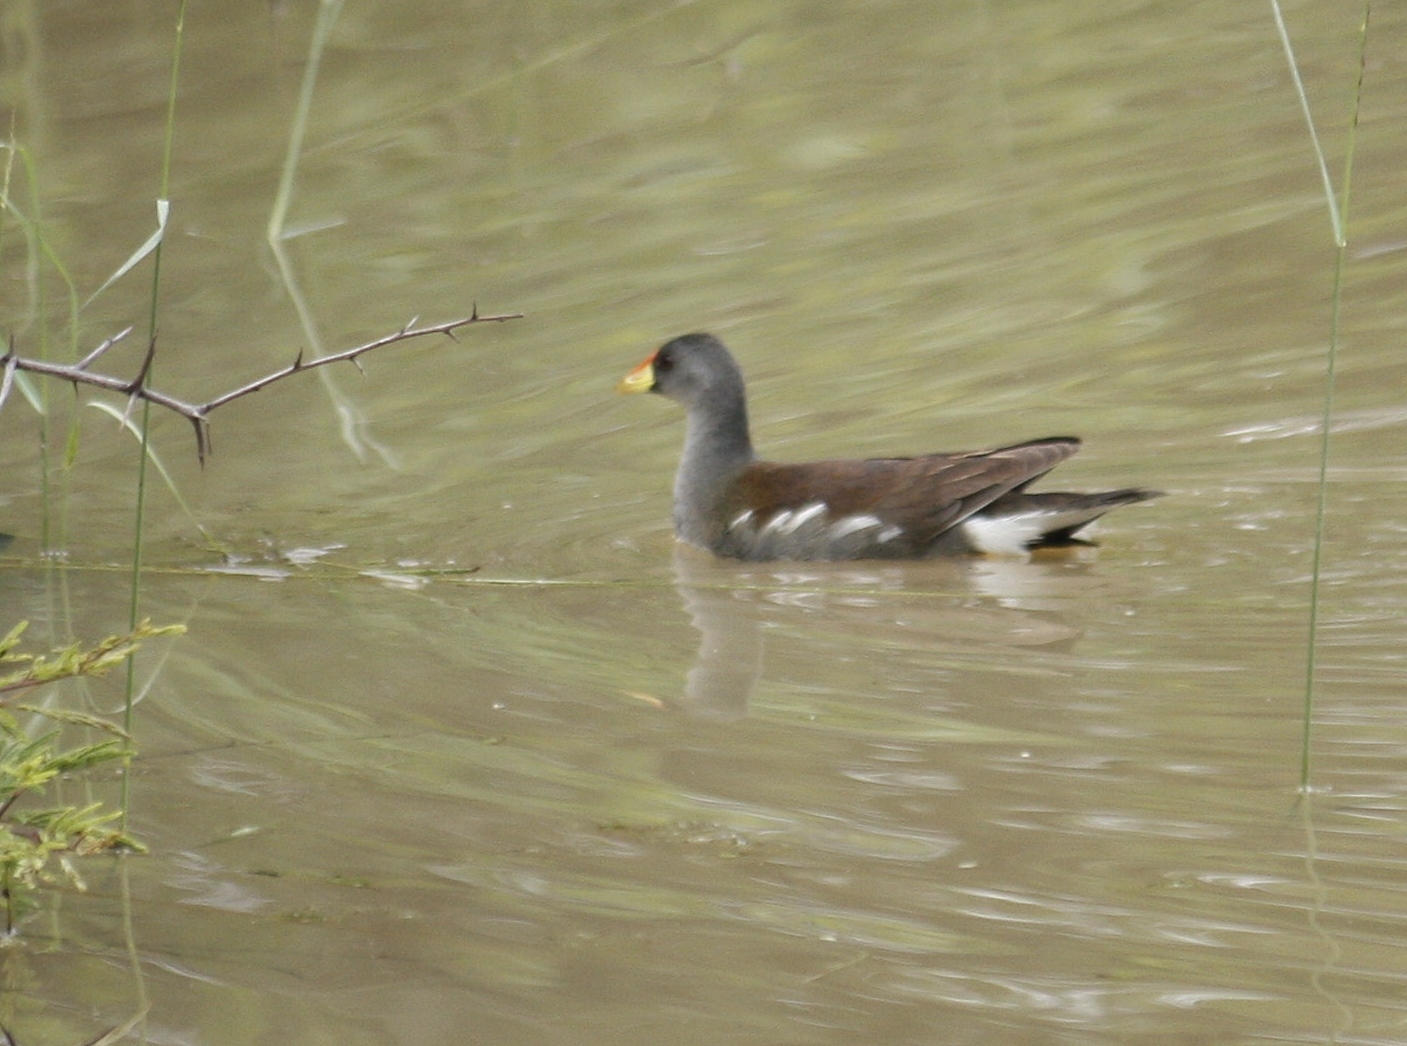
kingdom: Animalia
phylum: Chordata
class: Aves
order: Gruiformes
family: Rallidae
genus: Gallinula
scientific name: Gallinula angulata
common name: Lesser moorhen
